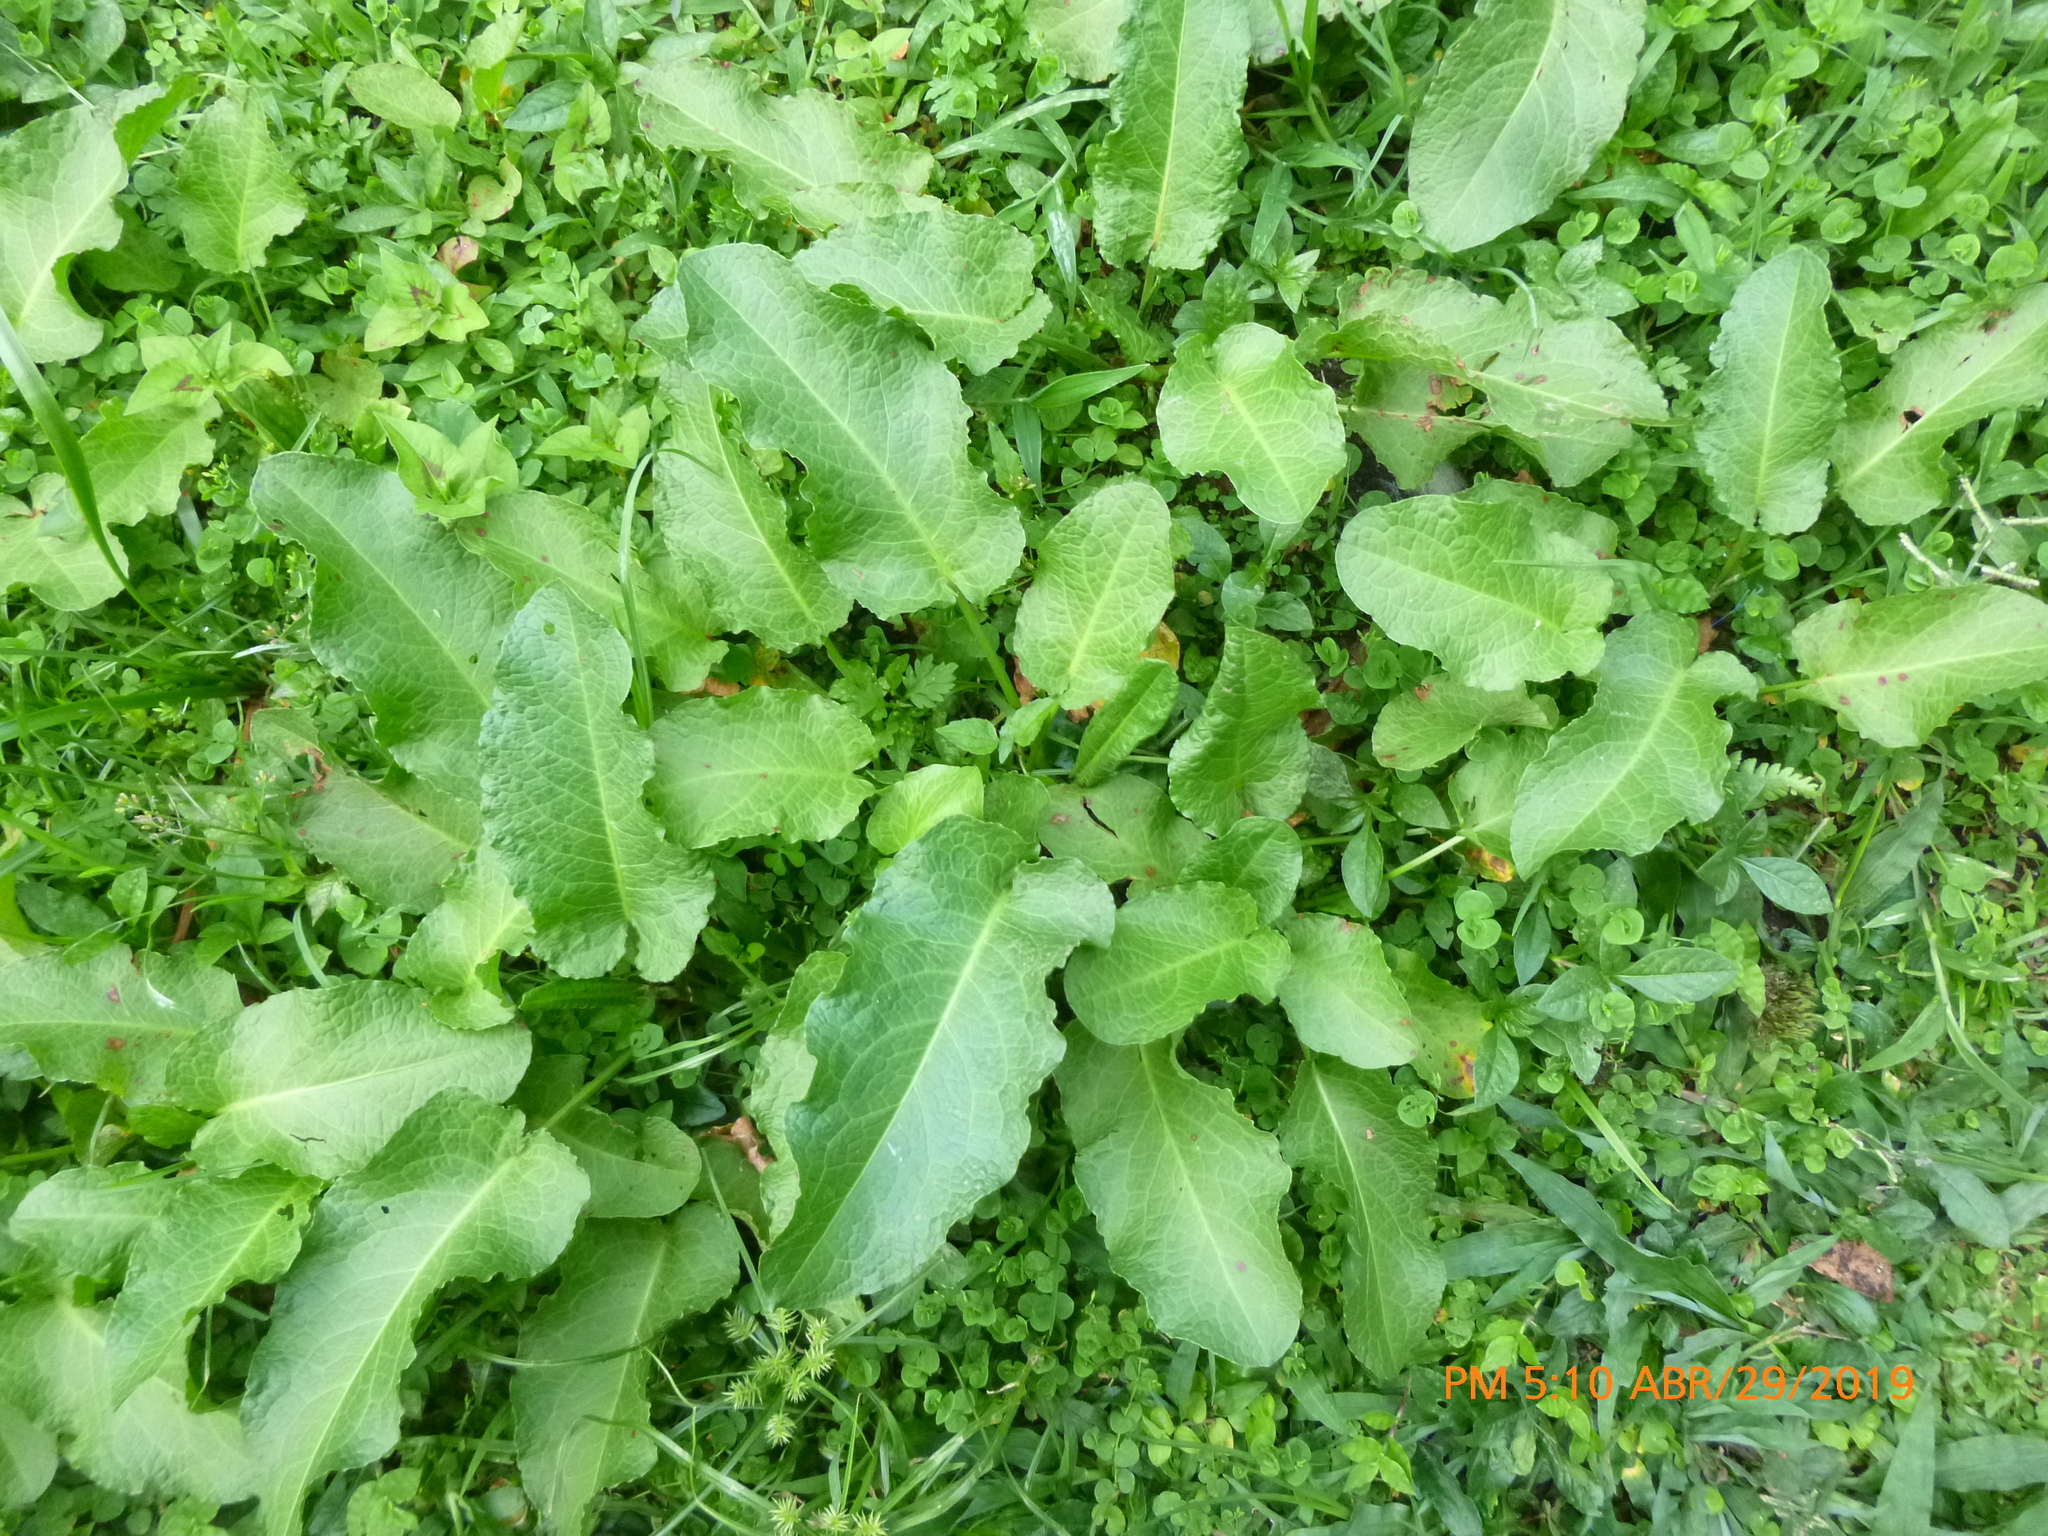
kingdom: Plantae
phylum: Tracheophyta
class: Magnoliopsida
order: Caryophyllales
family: Polygonaceae
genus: Rumex
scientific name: Rumex obtusifolius
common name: Bitter dock
